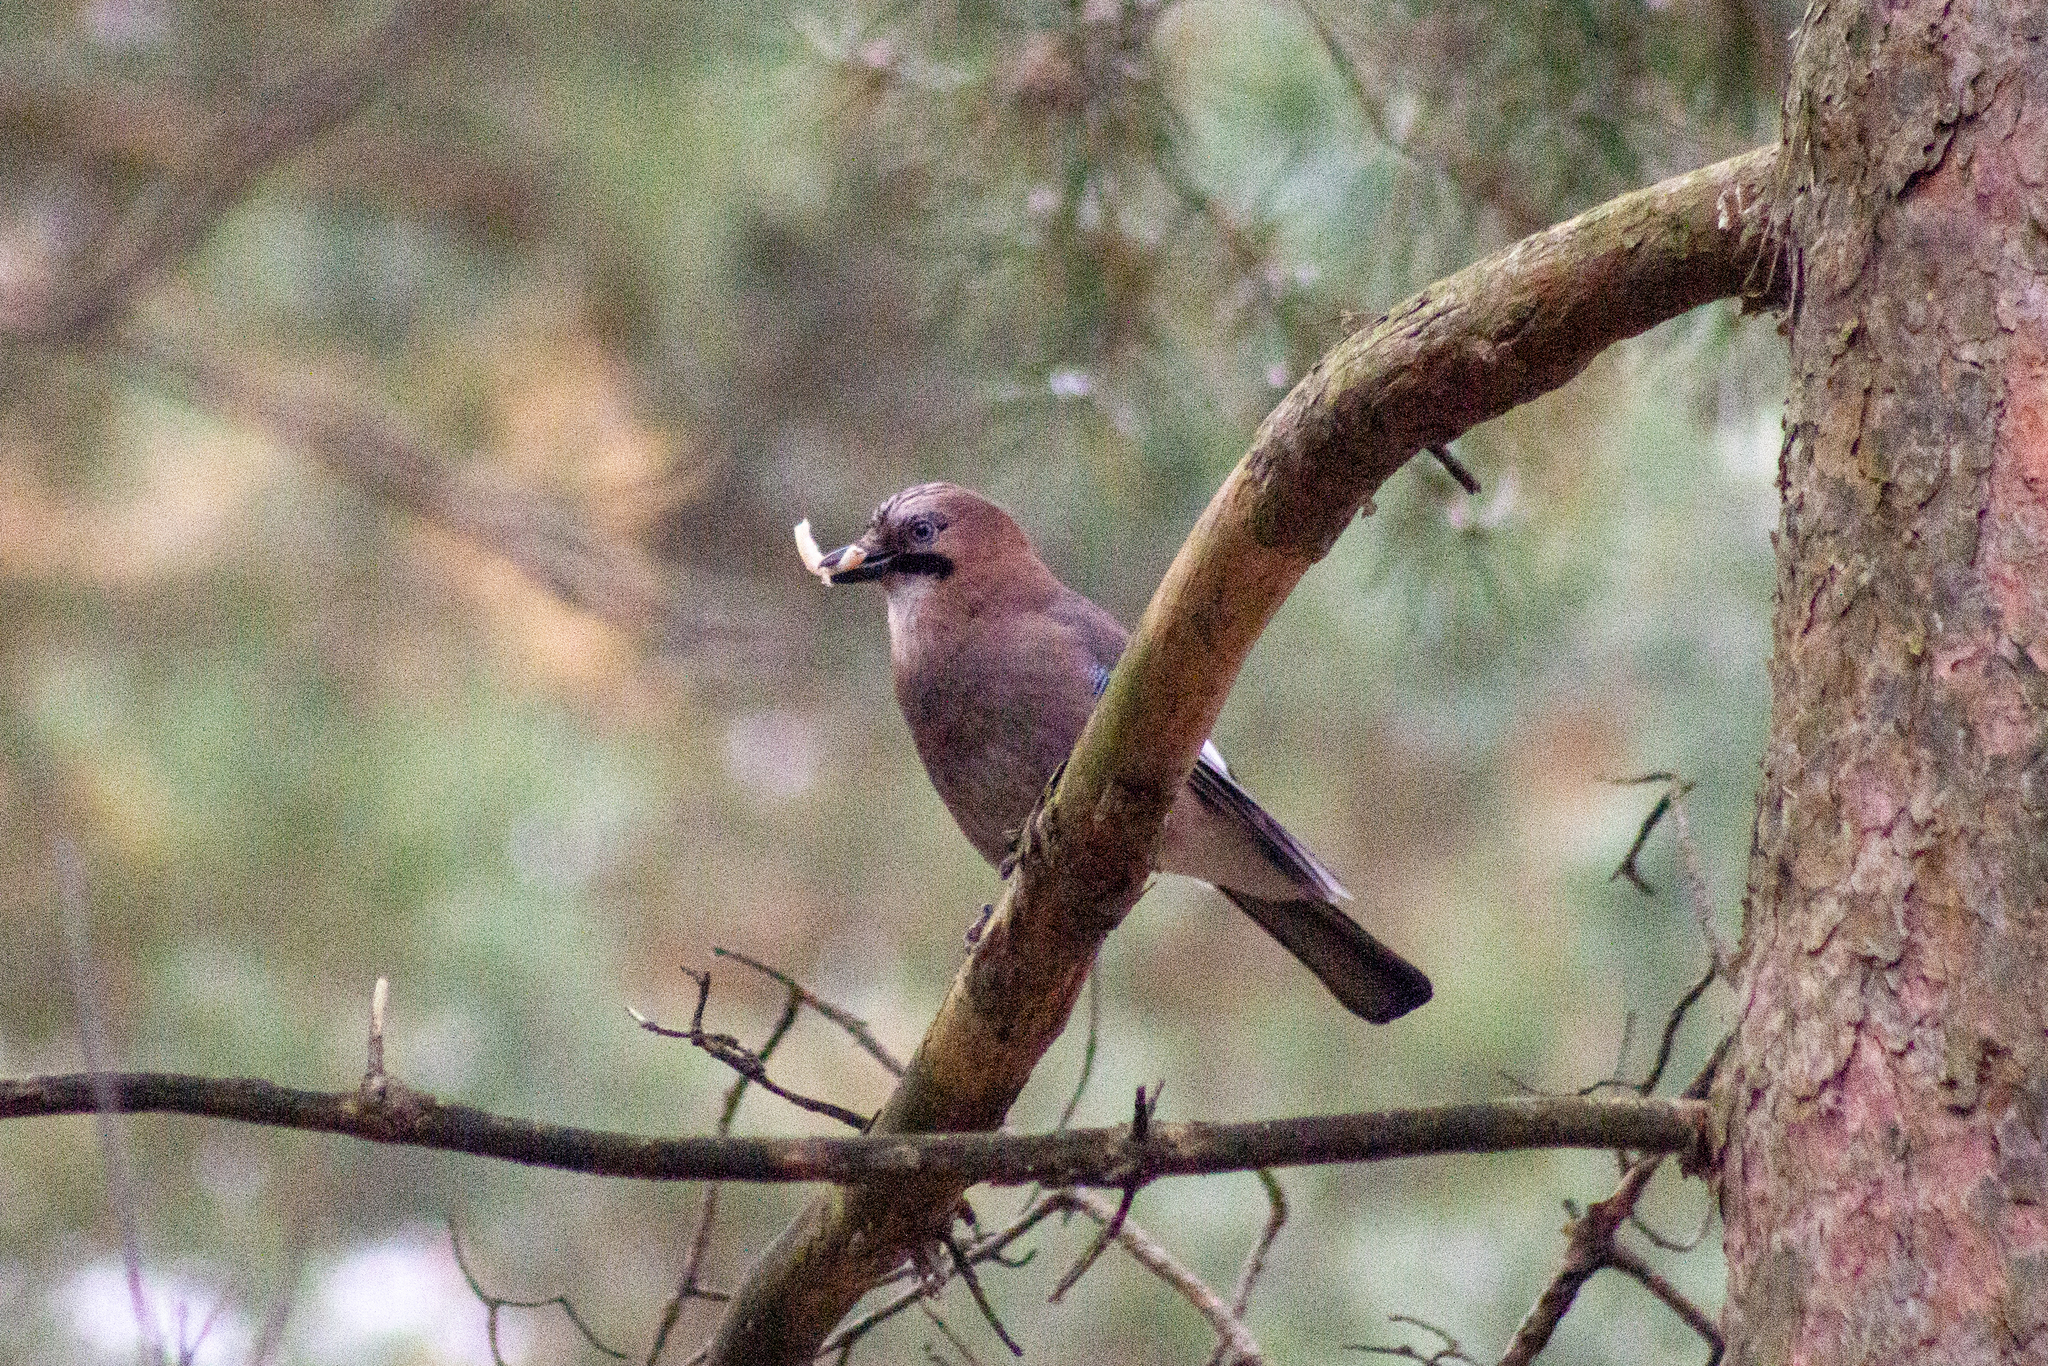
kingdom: Animalia
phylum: Chordata
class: Aves
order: Passeriformes
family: Corvidae
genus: Garrulus
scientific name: Garrulus glandarius
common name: Eurasian jay
